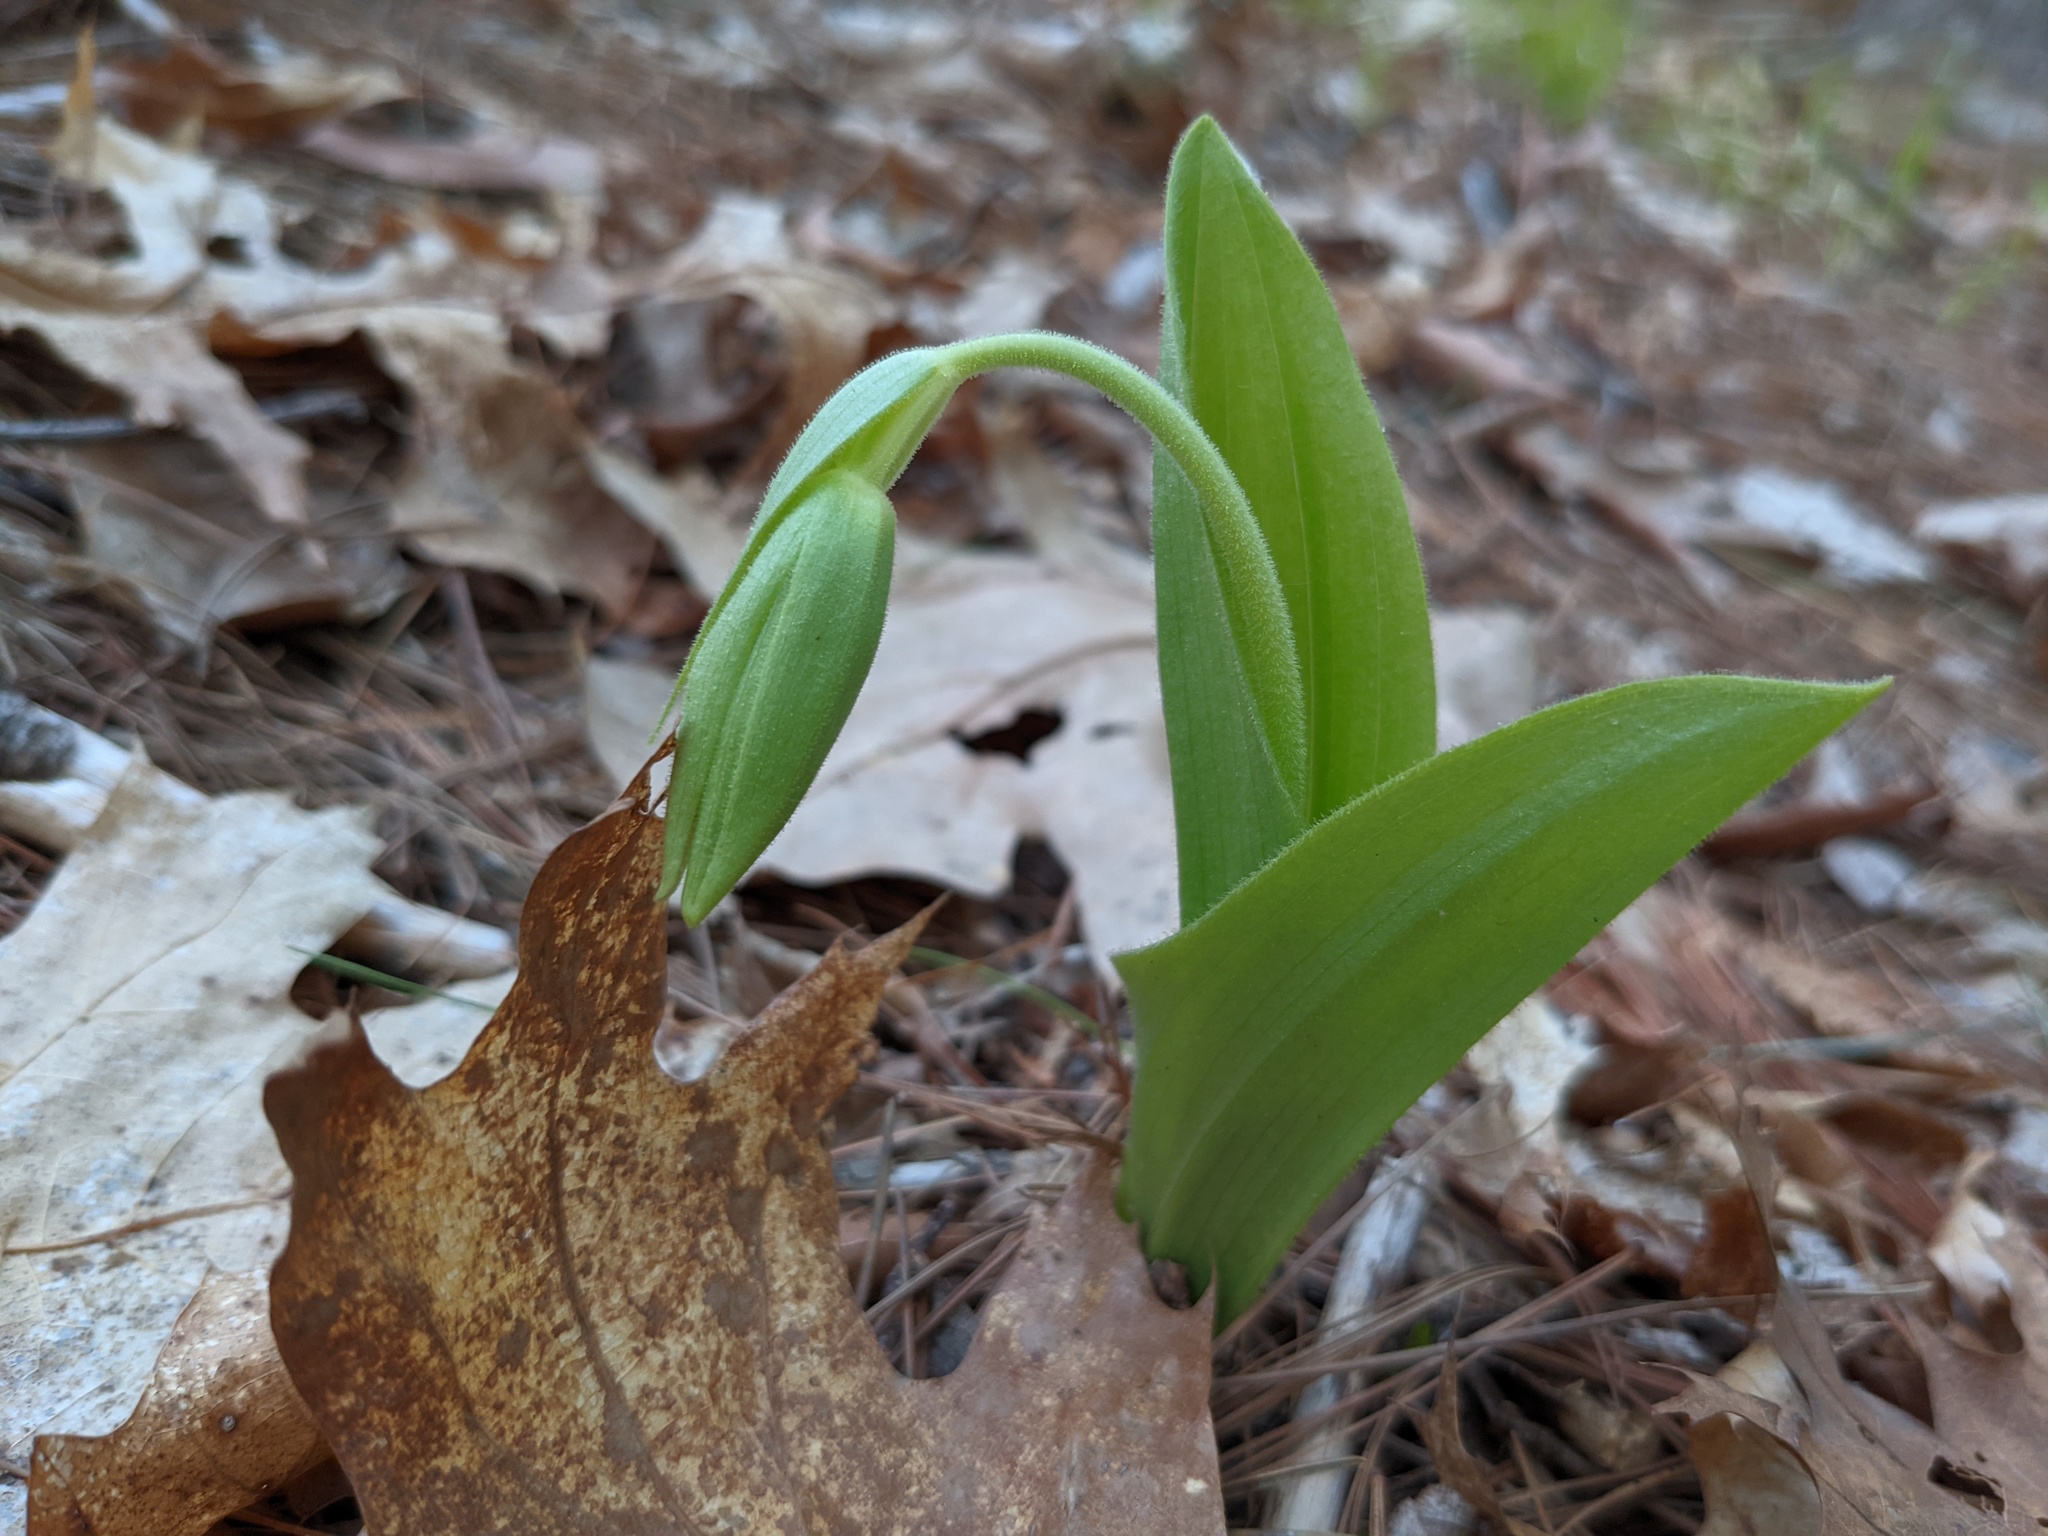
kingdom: Plantae
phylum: Tracheophyta
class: Liliopsida
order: Asparagales
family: Orchidaceae
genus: Cypripedium
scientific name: Cypripedium acaule
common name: Pink lady's-slipper
